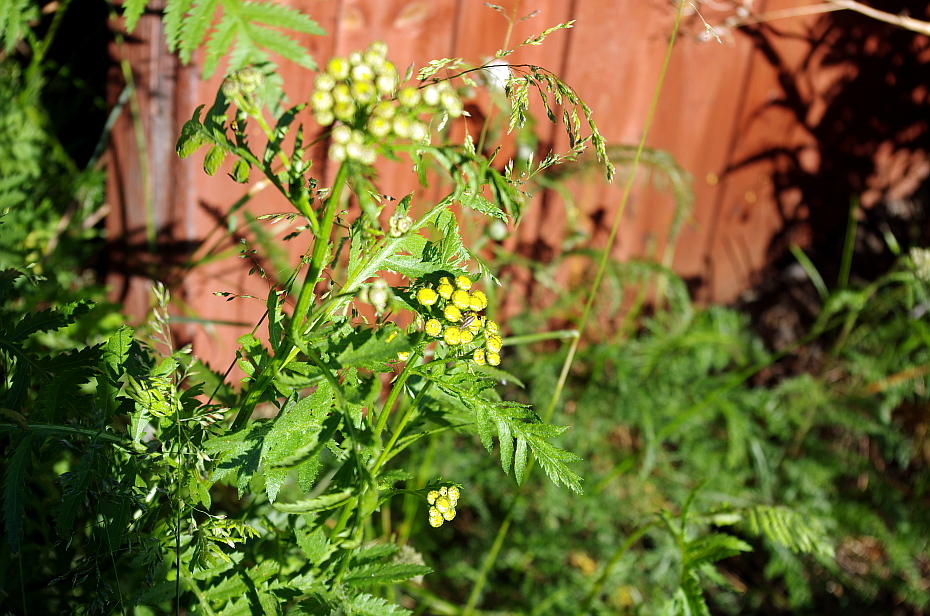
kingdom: Plantae
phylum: Tracheophyta
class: Magnoliopsida
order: Asterales
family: Asteraceae
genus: Tanacetum
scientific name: Tanacetum vulgare
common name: Common tansy
